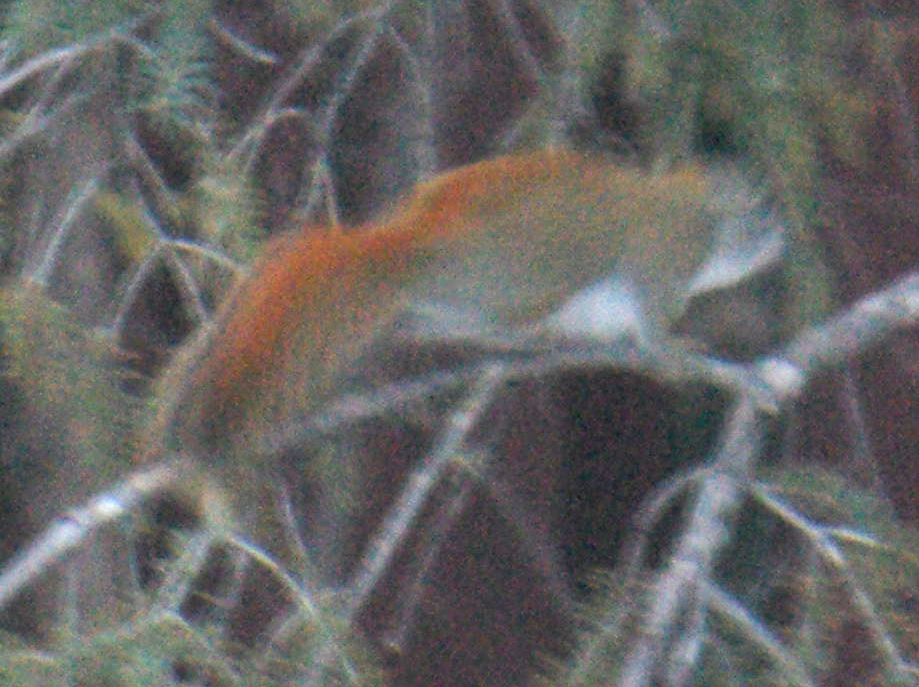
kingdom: Animalia
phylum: Chordata
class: Mammalia
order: Rodentia
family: Sciuridae
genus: Tamiasciurus
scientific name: Tamiasciurus hudsonicus
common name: Red squirrel
